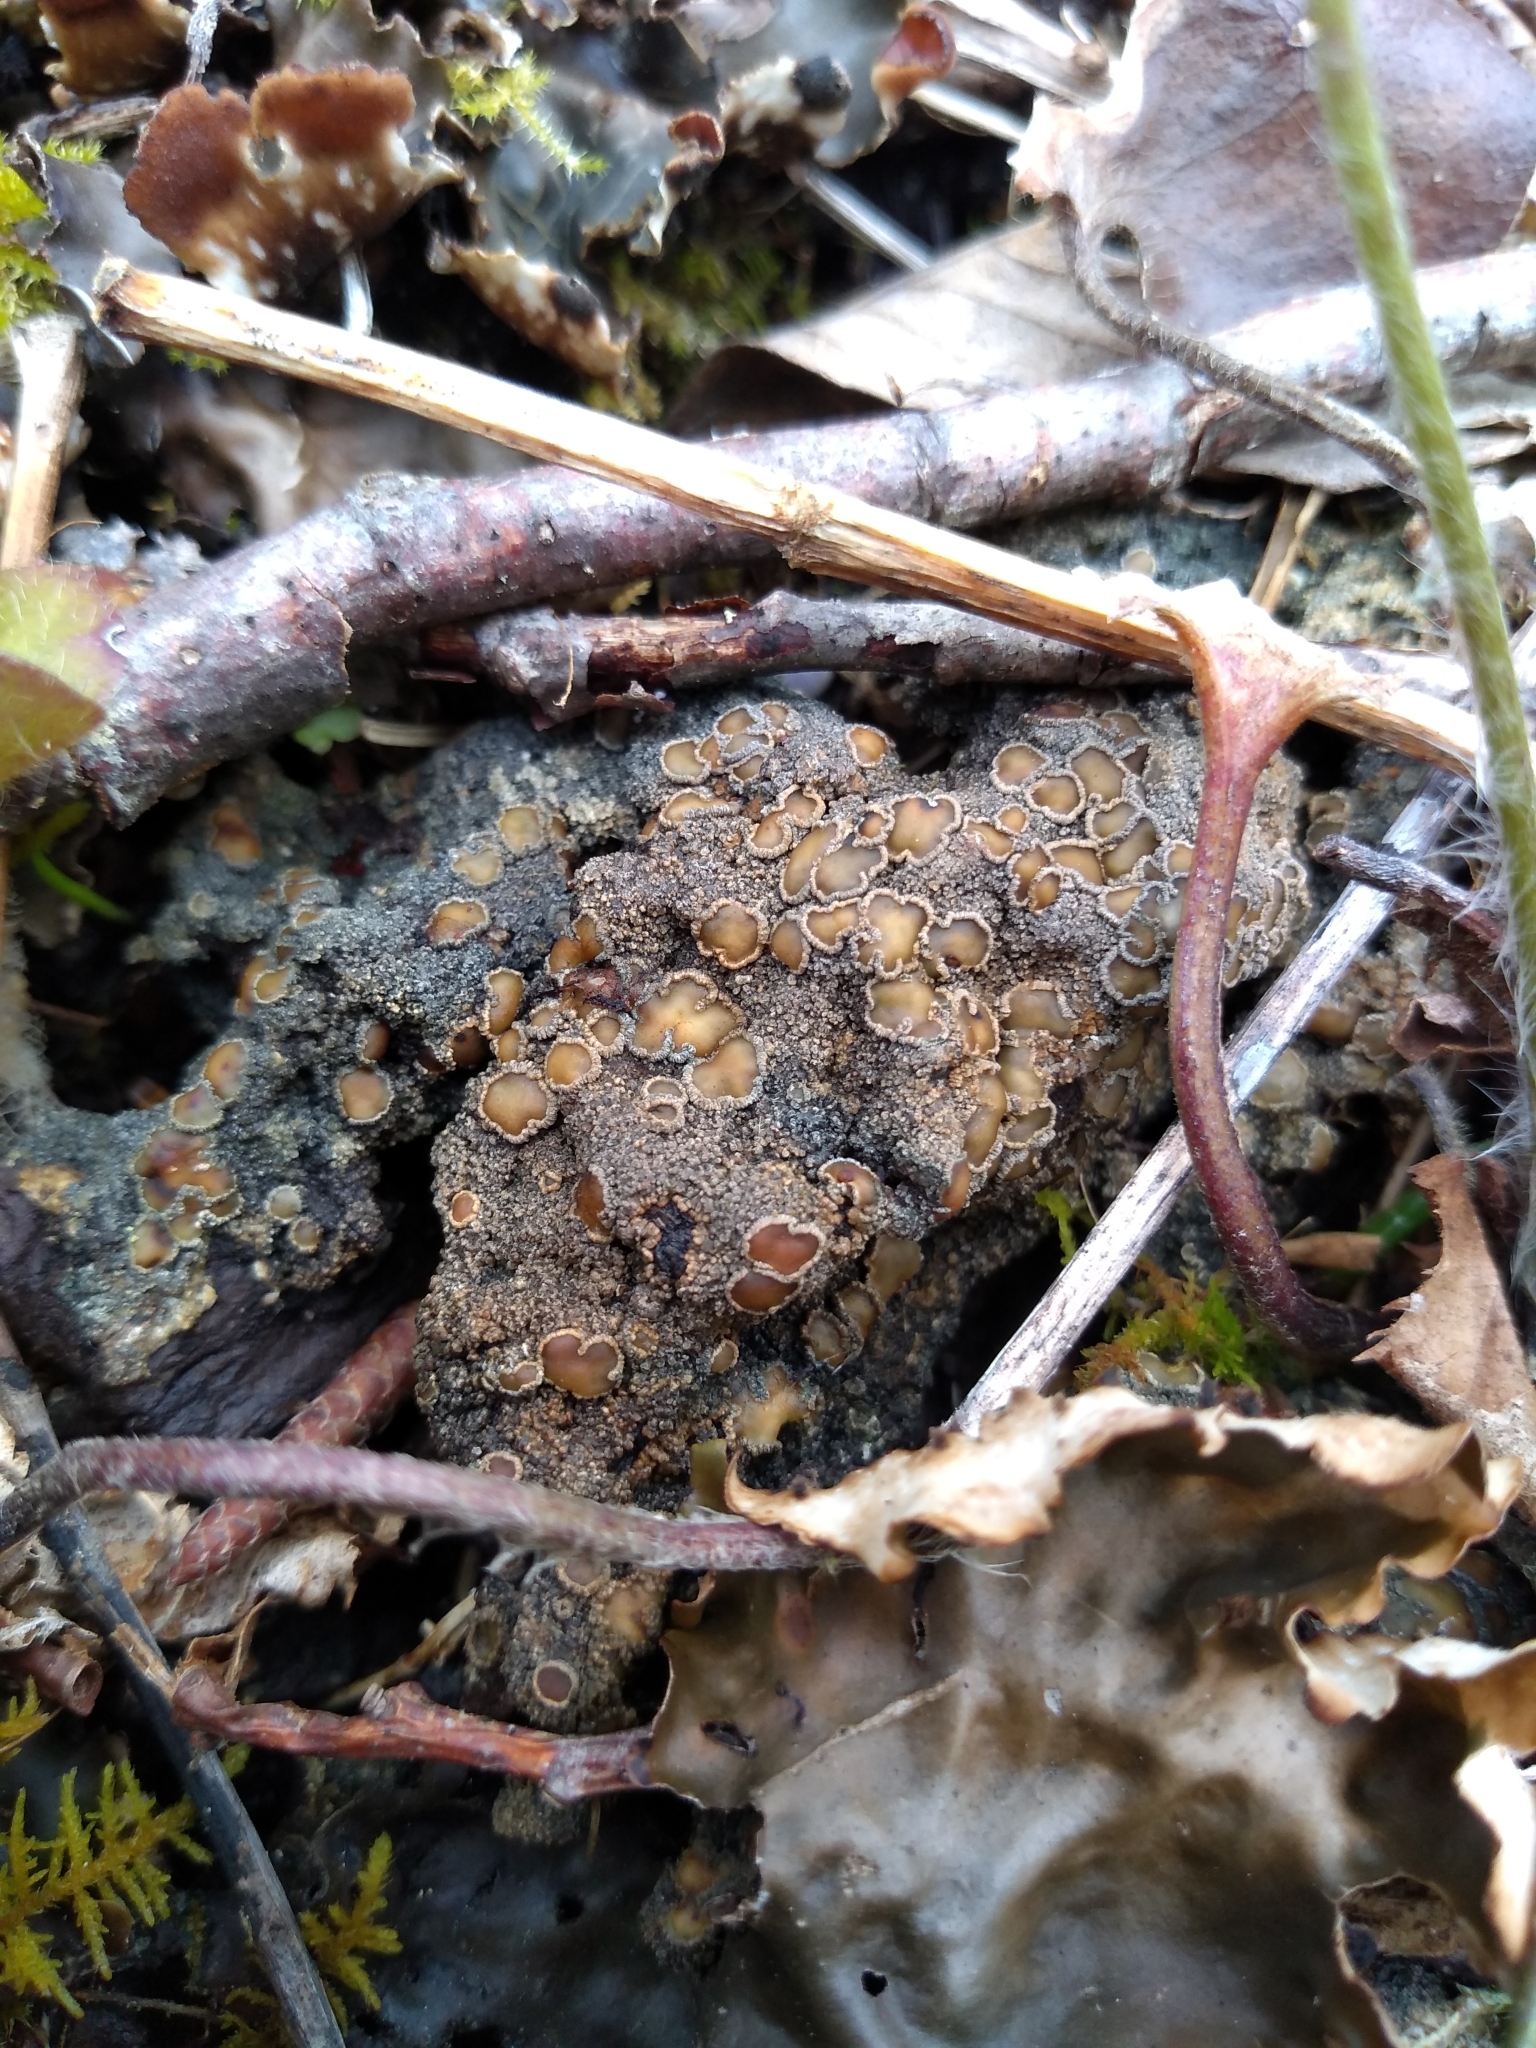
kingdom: Fungi
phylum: Ascomycota
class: Lecanoromycetes
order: Peltigerales
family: Pannariaceae
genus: Protopannaria
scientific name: Protopannaria pezizoides
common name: Brown-gray m oss-shingle
